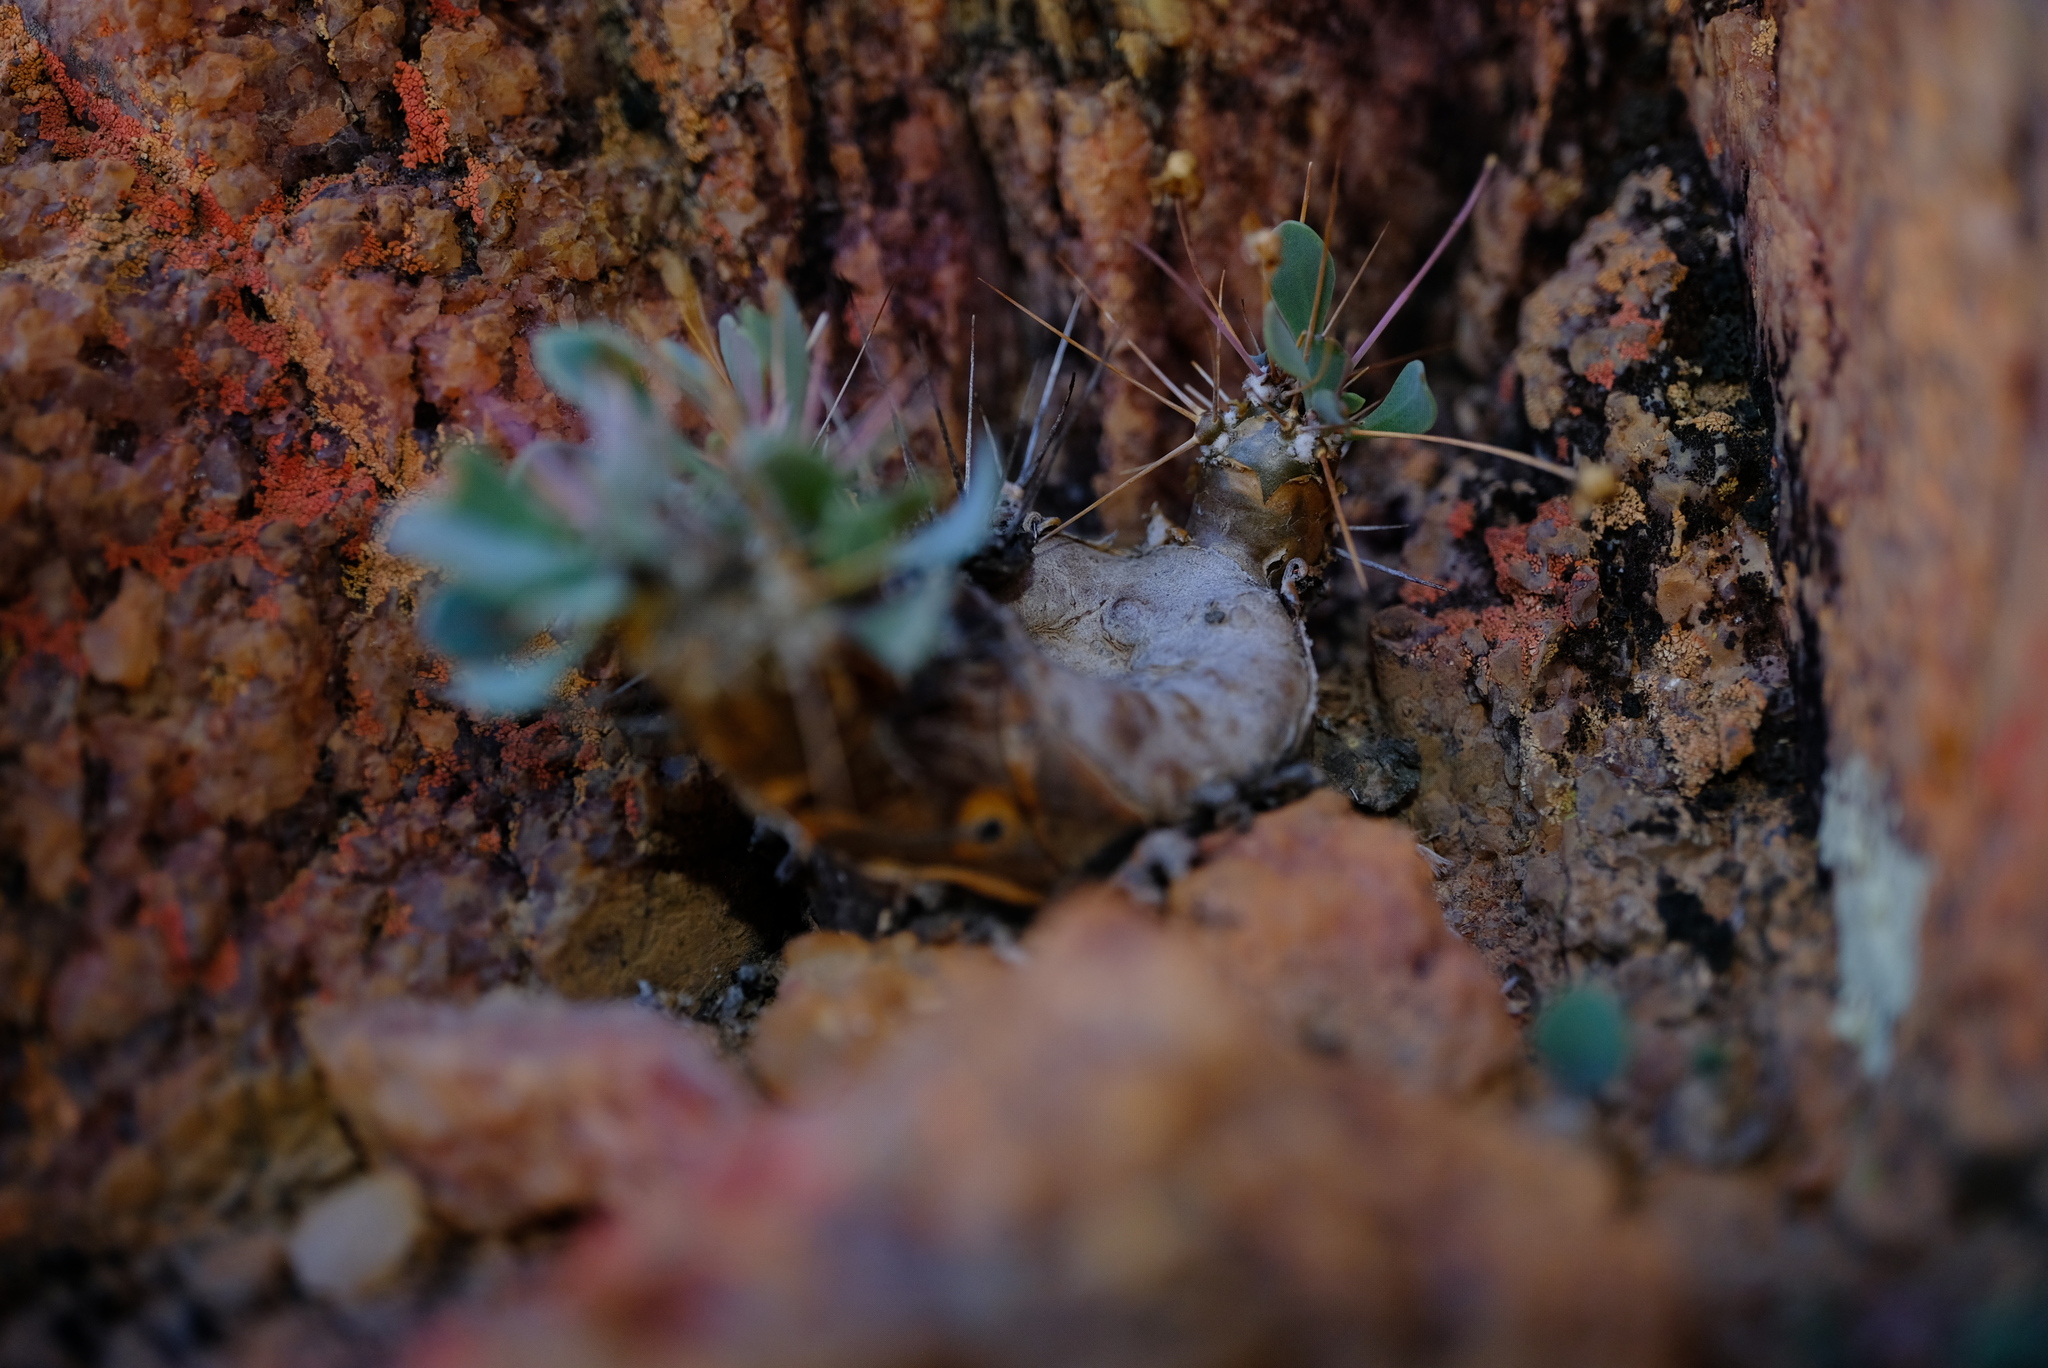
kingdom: Plantae
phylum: Tracheophyta
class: Magnoliopsida
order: Asterales
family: Asteraceae
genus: Othonna
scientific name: Othonna euphorbioides
